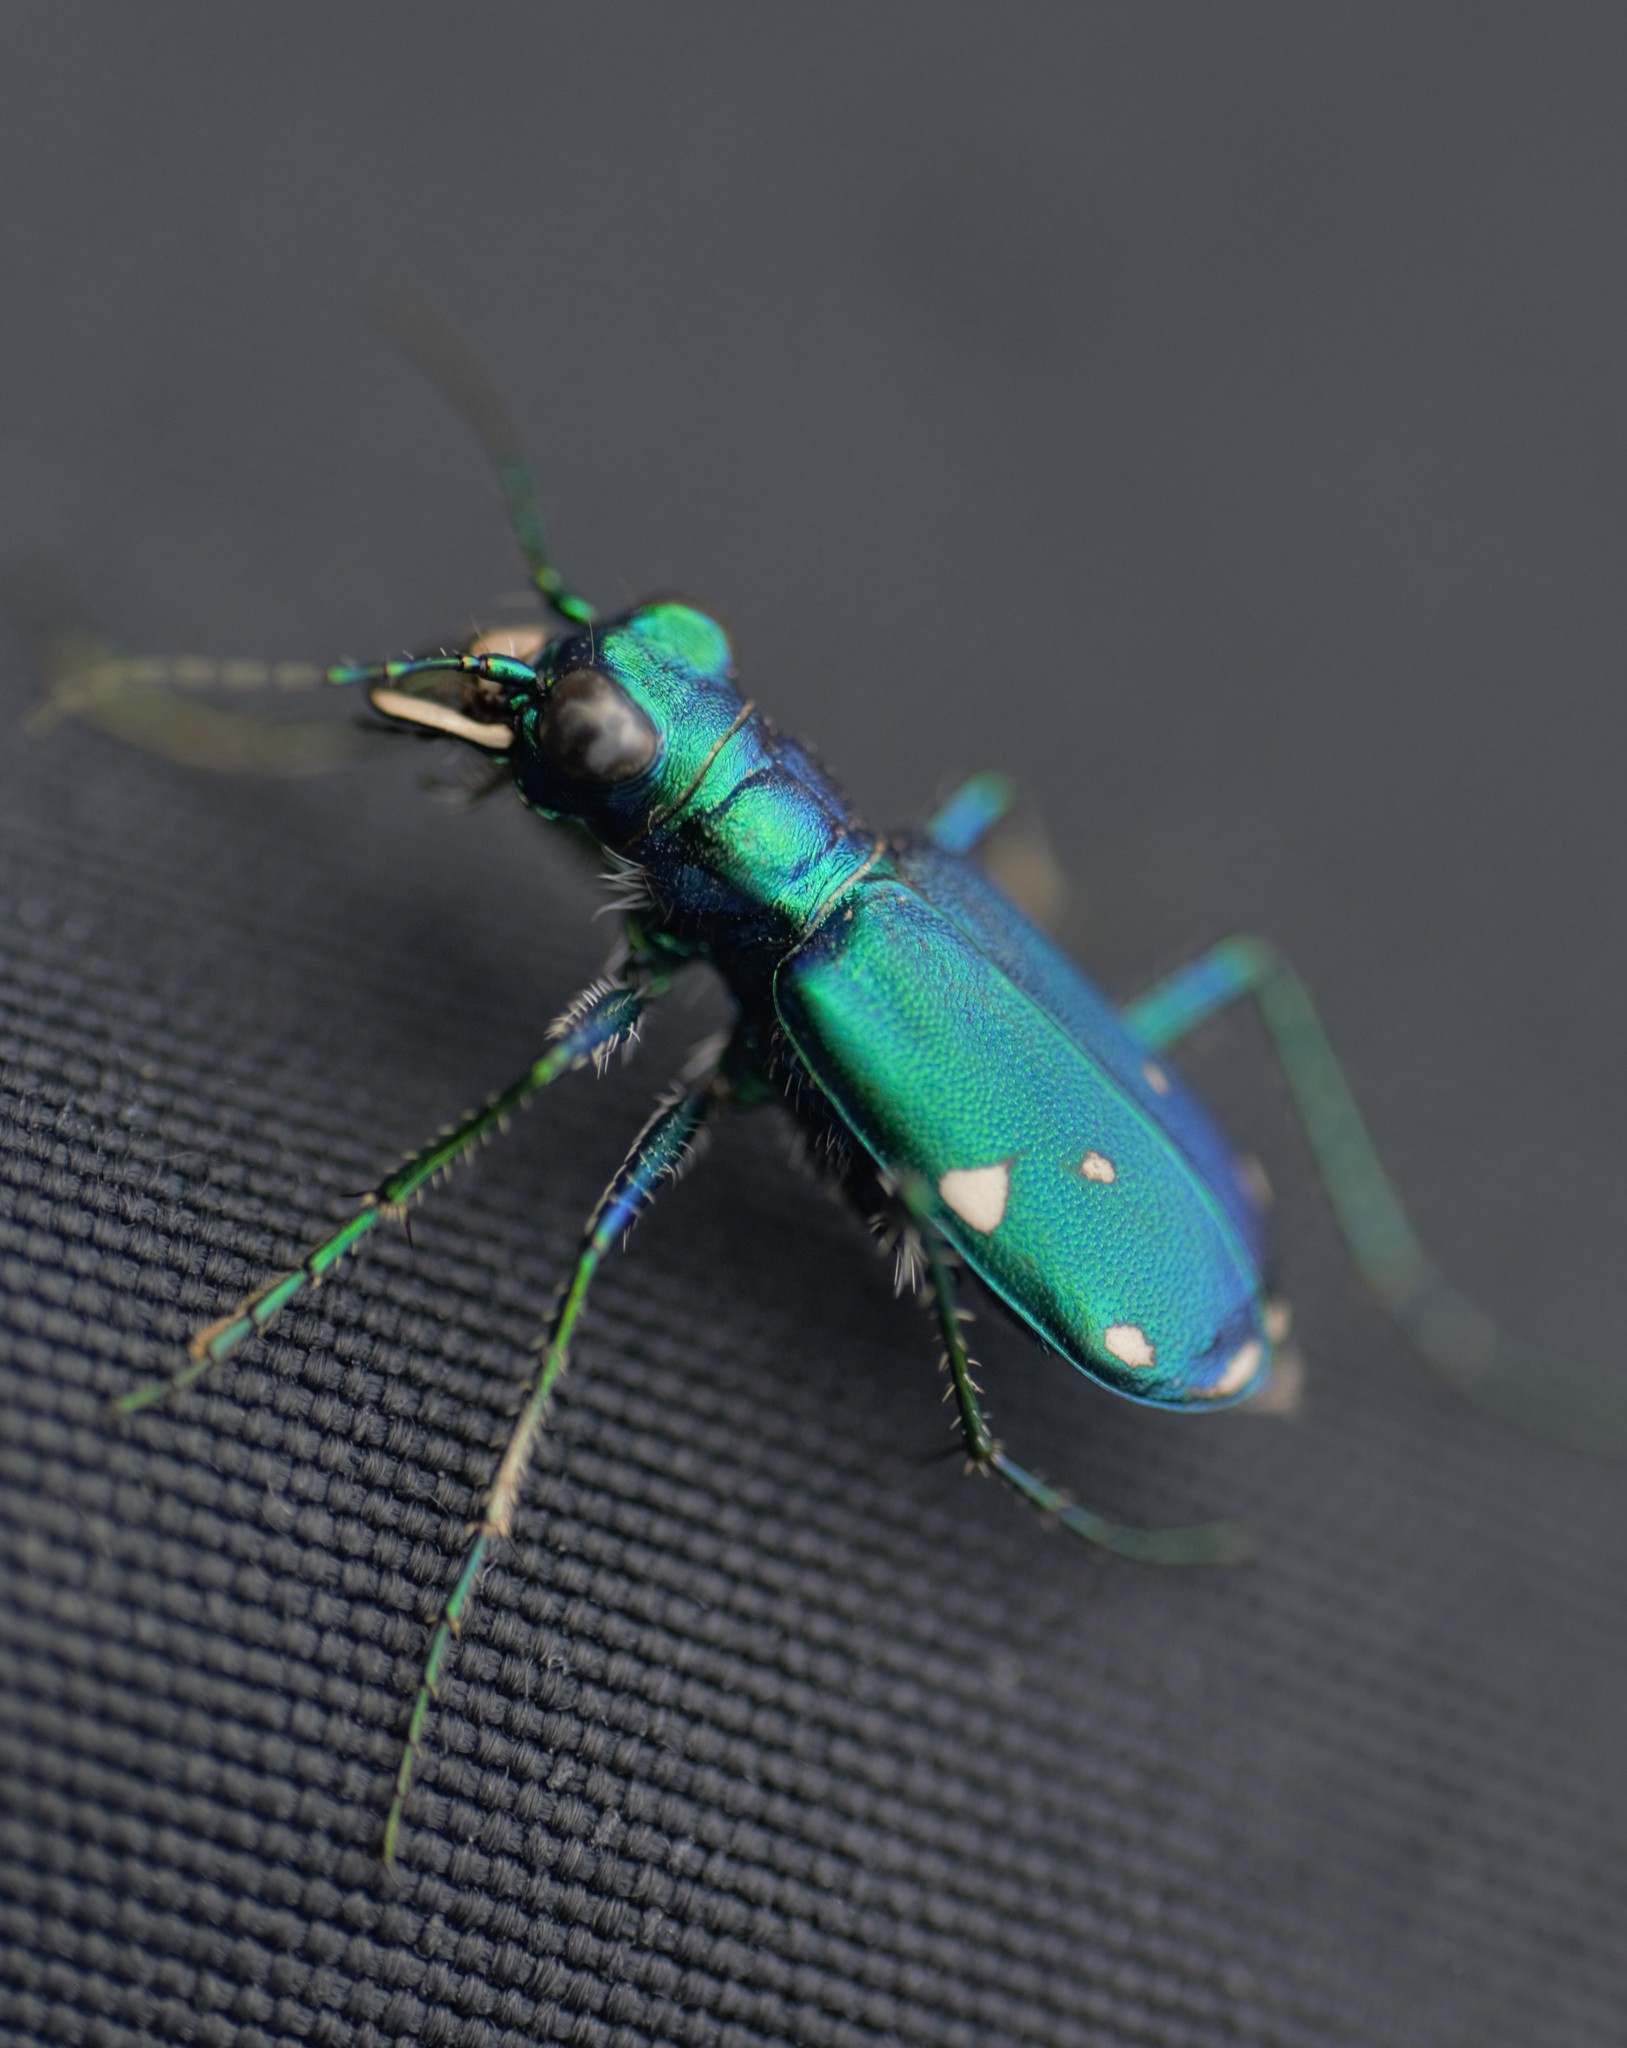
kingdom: Animalia
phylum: Arthropoda
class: Insecta
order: Coleoptera
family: Carabidae
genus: Cicindela
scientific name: Cicindela sexguttata
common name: Six-spotted tiger beetle
